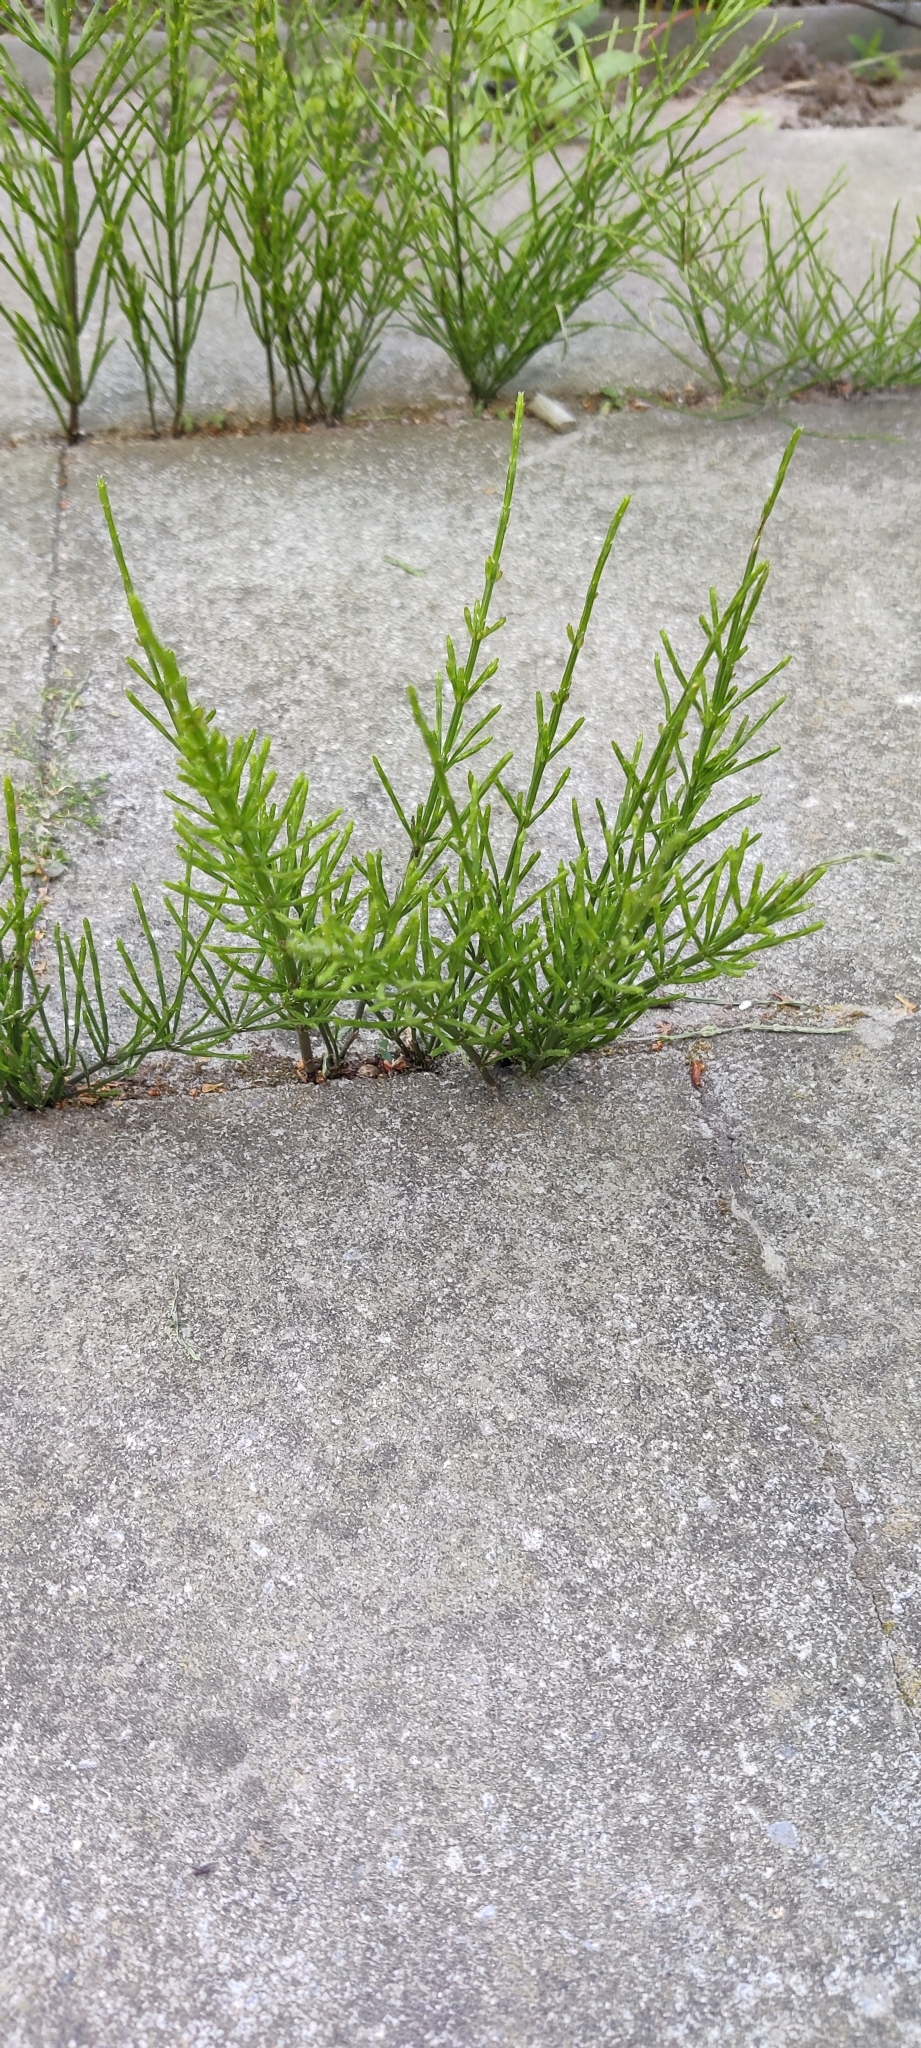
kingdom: Plantae
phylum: Tracheophyta
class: Polypodiopsida
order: Equisetales
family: Equisetaceae
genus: Equisetum
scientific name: Equisetum arvense
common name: Field horsetail
